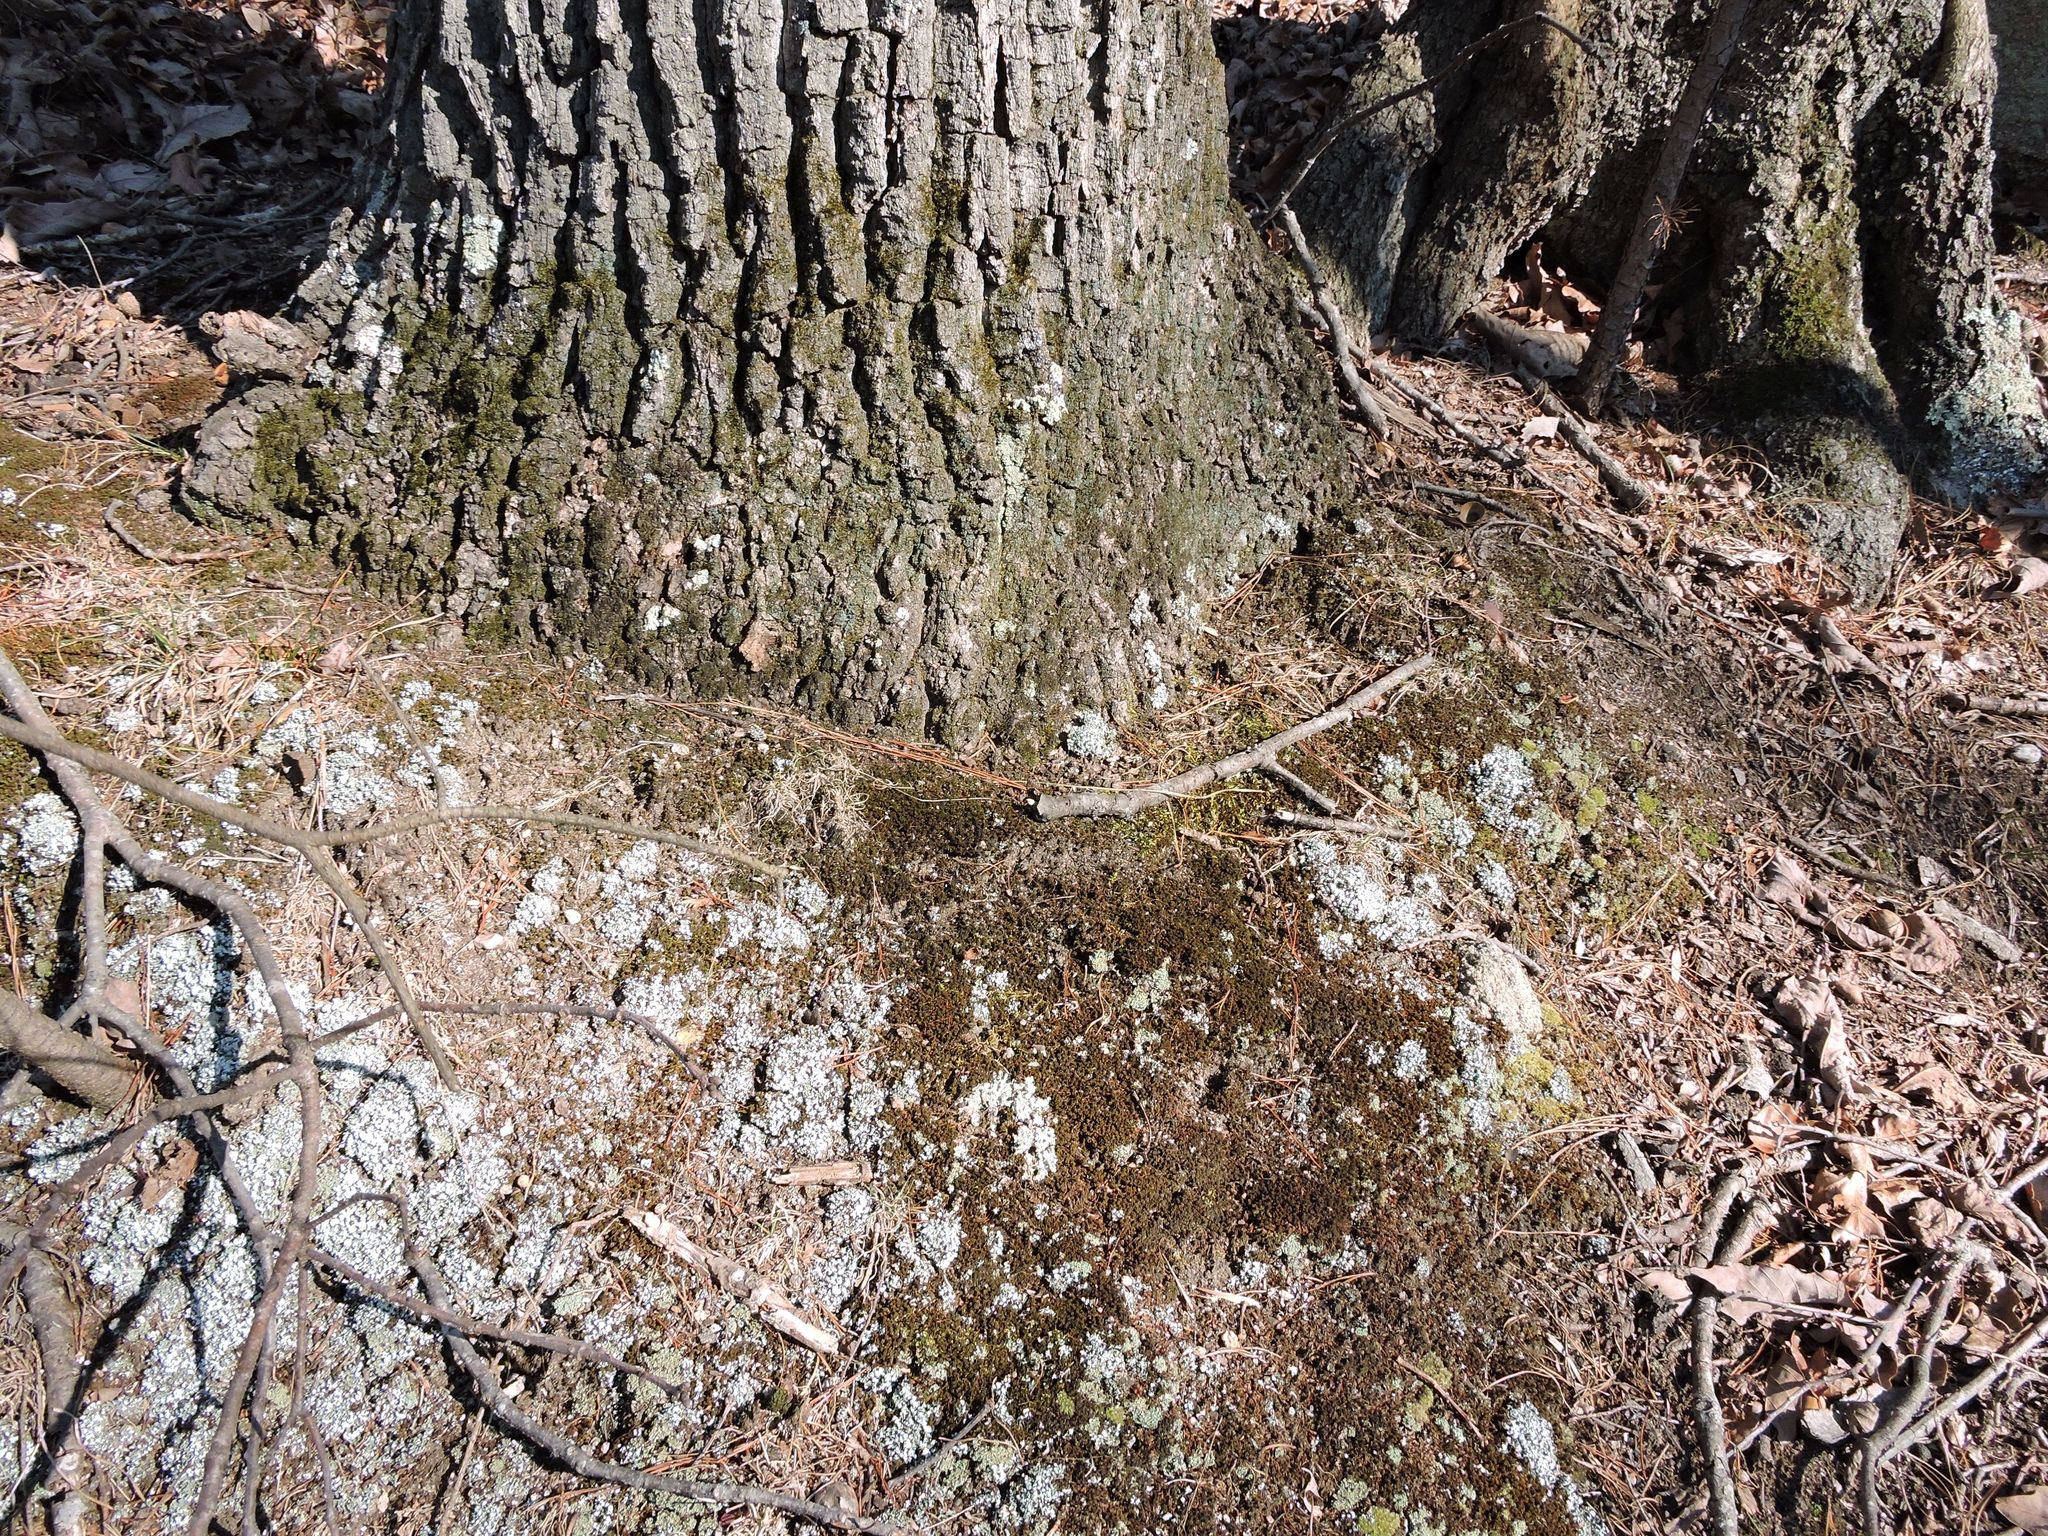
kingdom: Fungi
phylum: Ascomycota
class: Lecanoromycetes
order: Lecanorales
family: Cladoniaceae
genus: Cladonia
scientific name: Cladonia apodocarpa
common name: Stalkless cladonia
